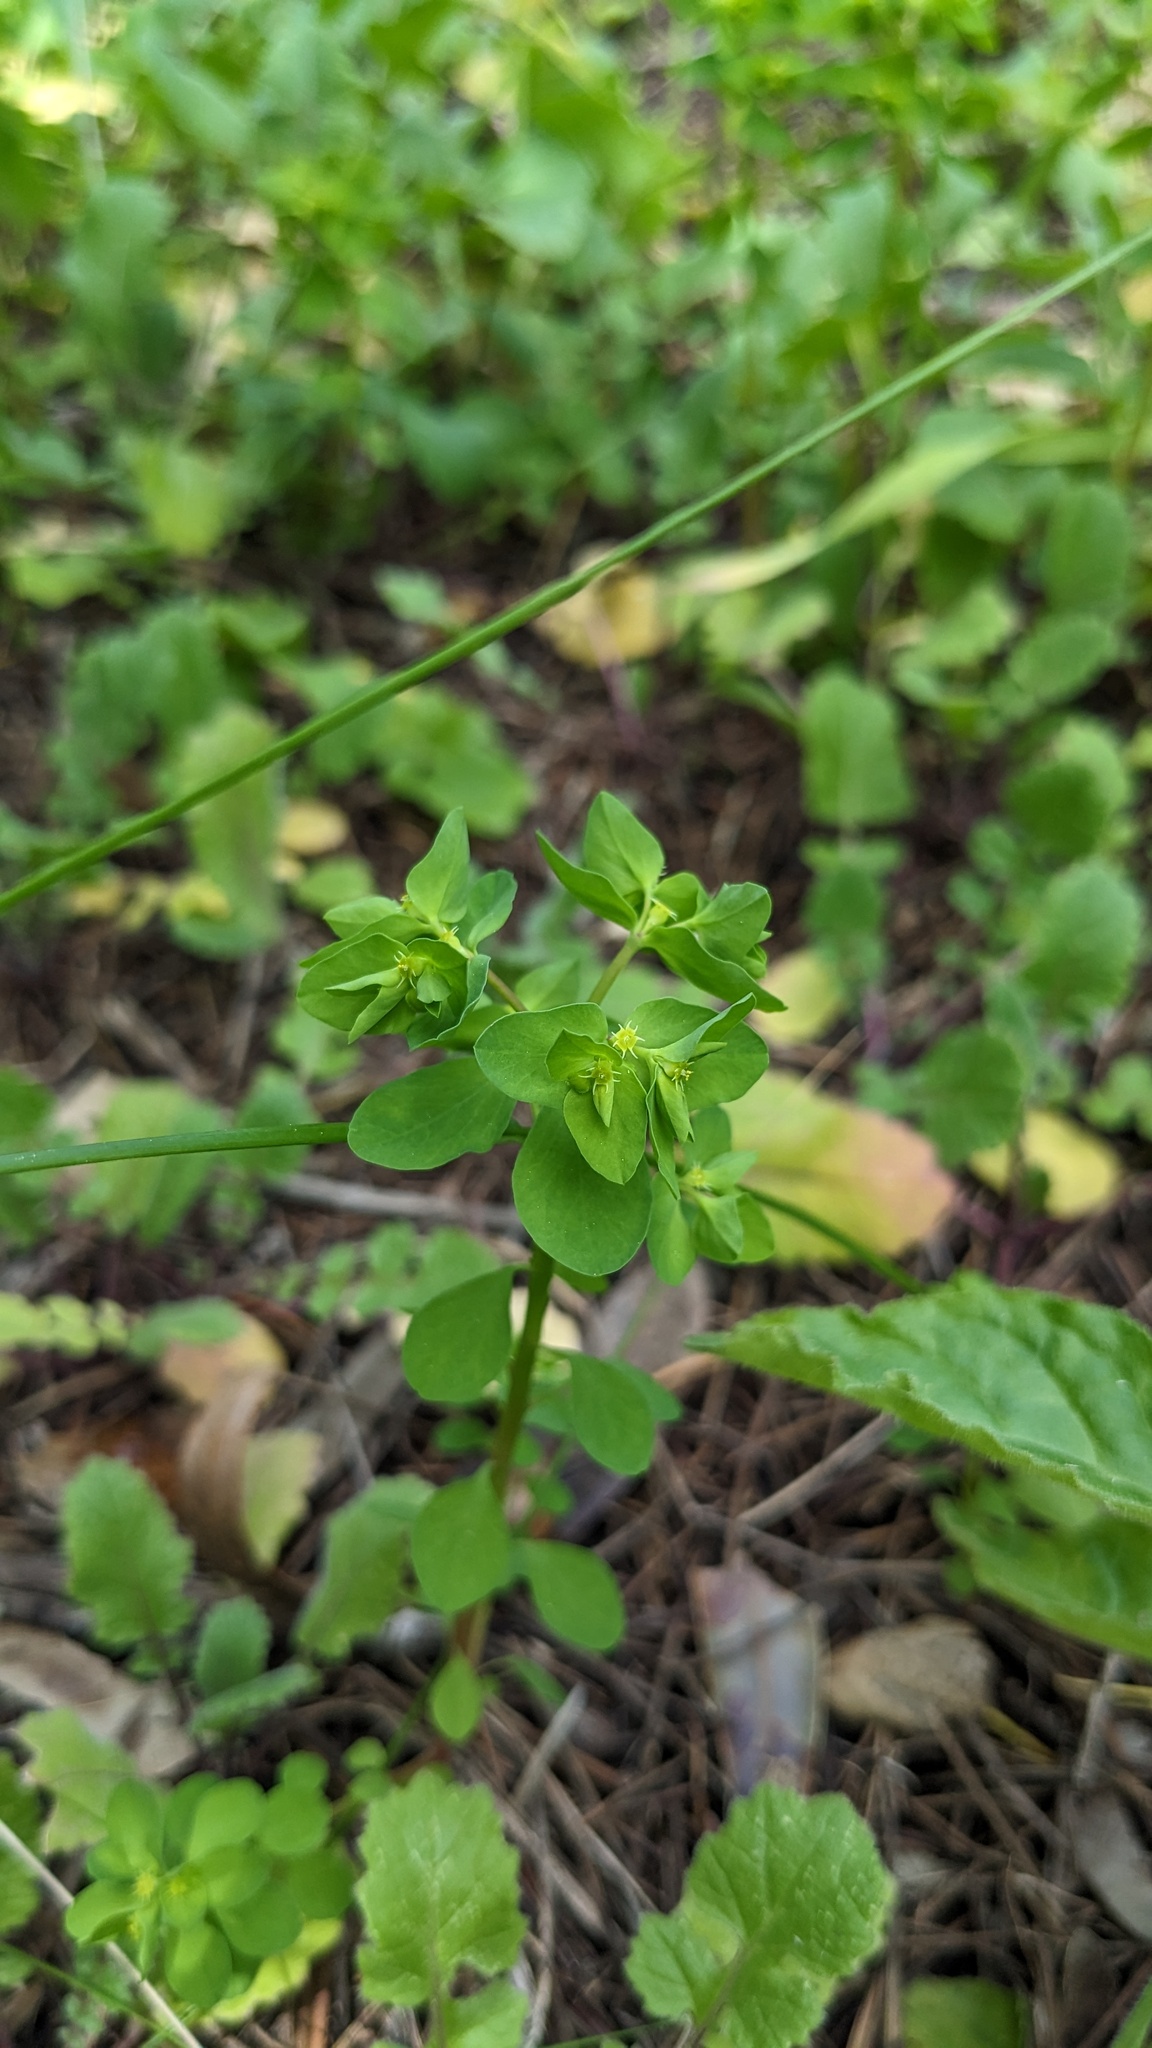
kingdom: Plantae
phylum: Tracheophyta
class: Magnoliopsida
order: Malpighiales
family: Euphorbiaceae
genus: Euphorbia
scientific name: Euphorbia peplus
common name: Petty spurge
